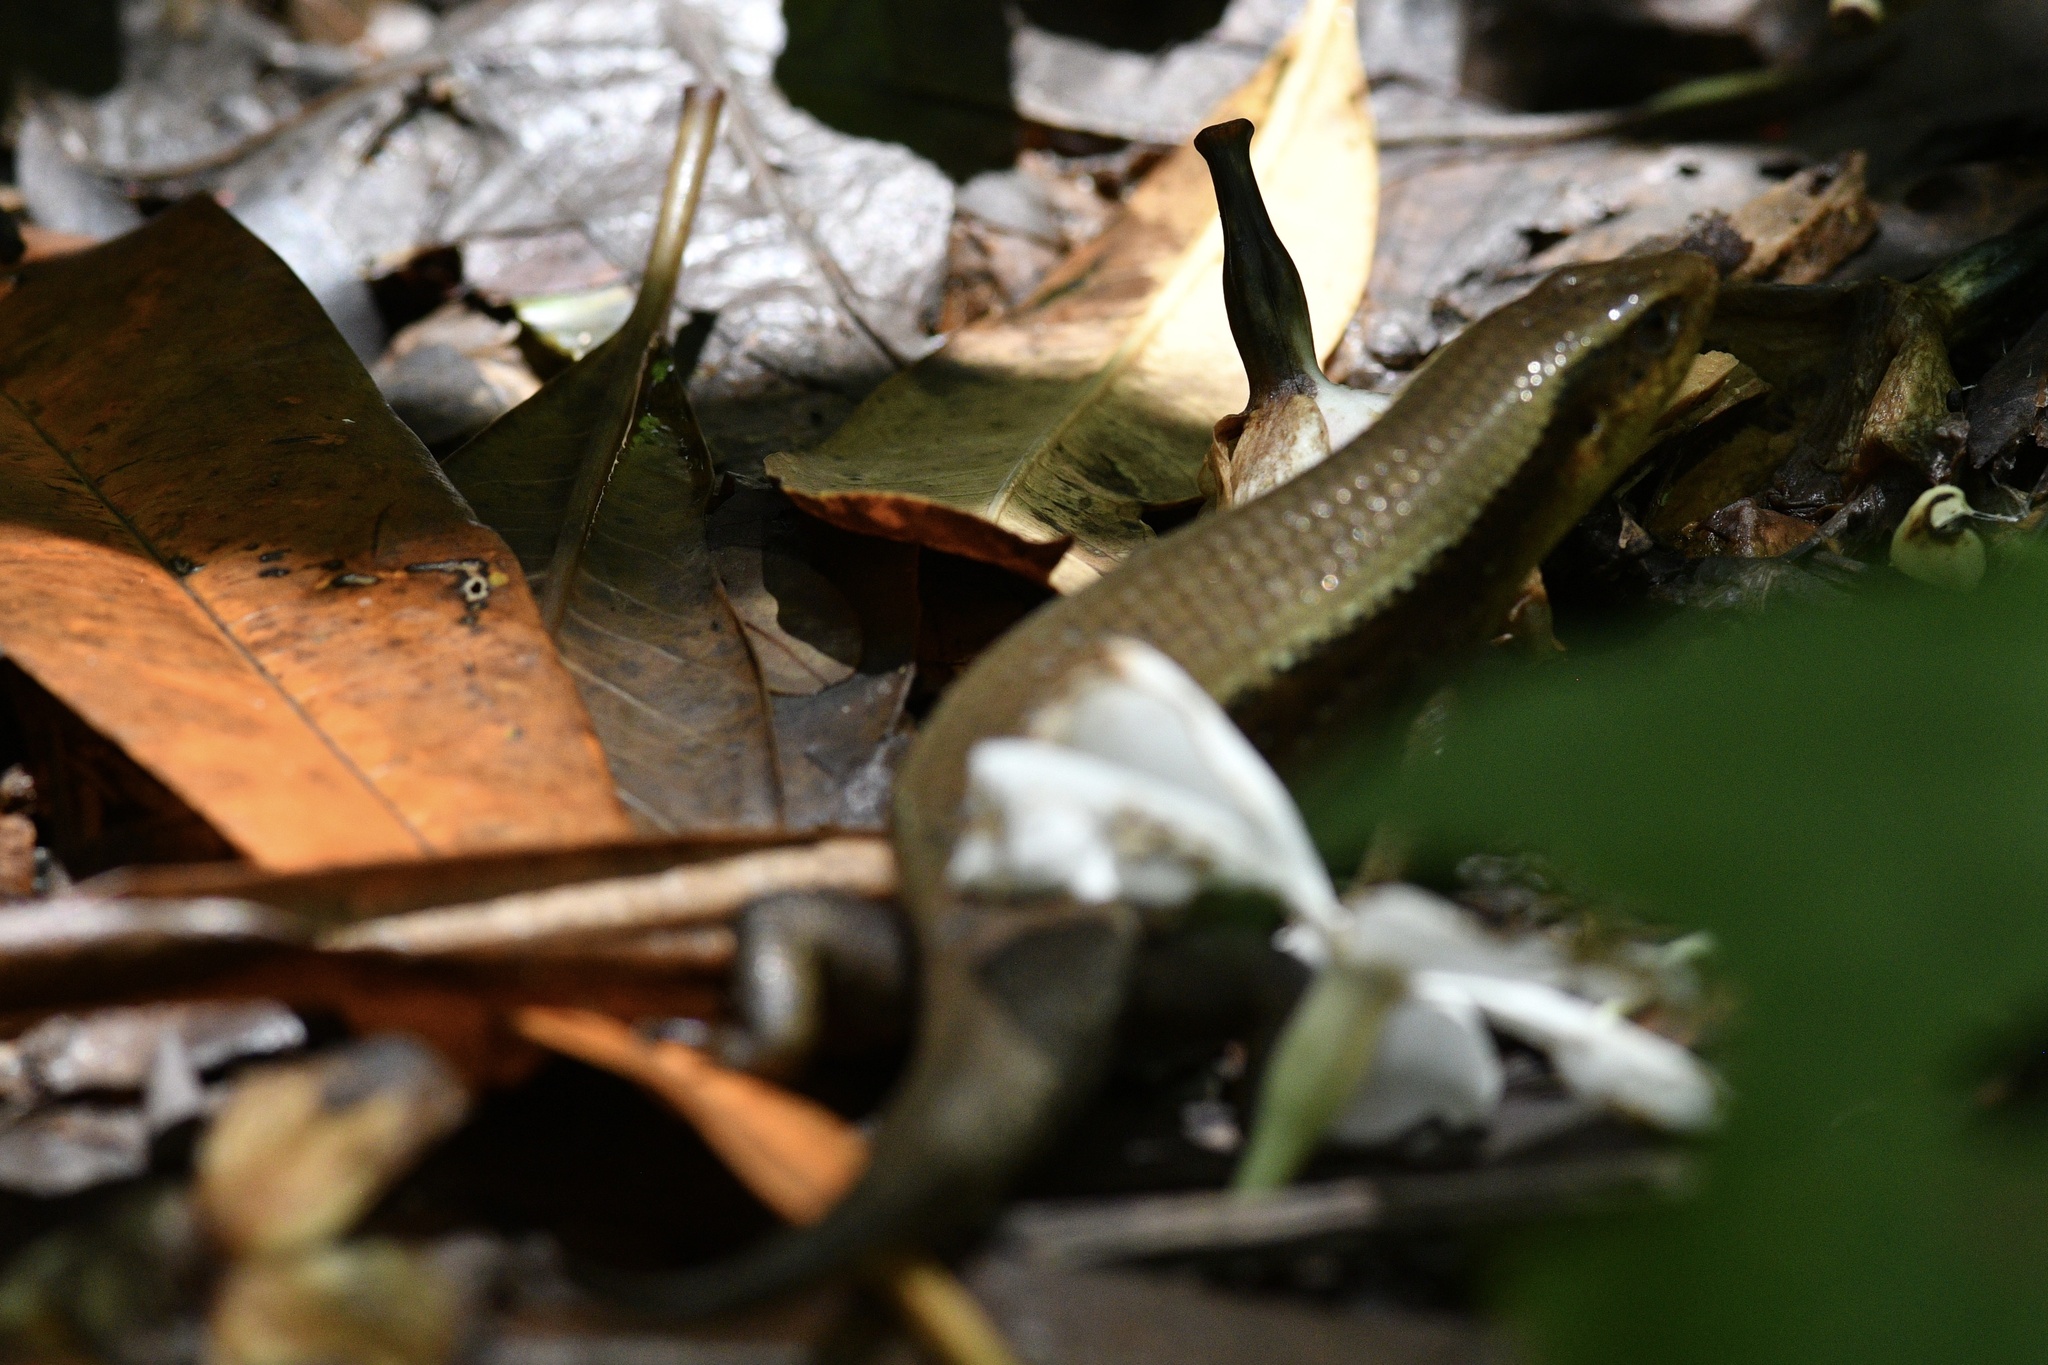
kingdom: Animalia
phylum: Chordata
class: Squamata
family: Scincidae
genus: Eutropis
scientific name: Eutropis multifasciata
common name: Common mabuya
